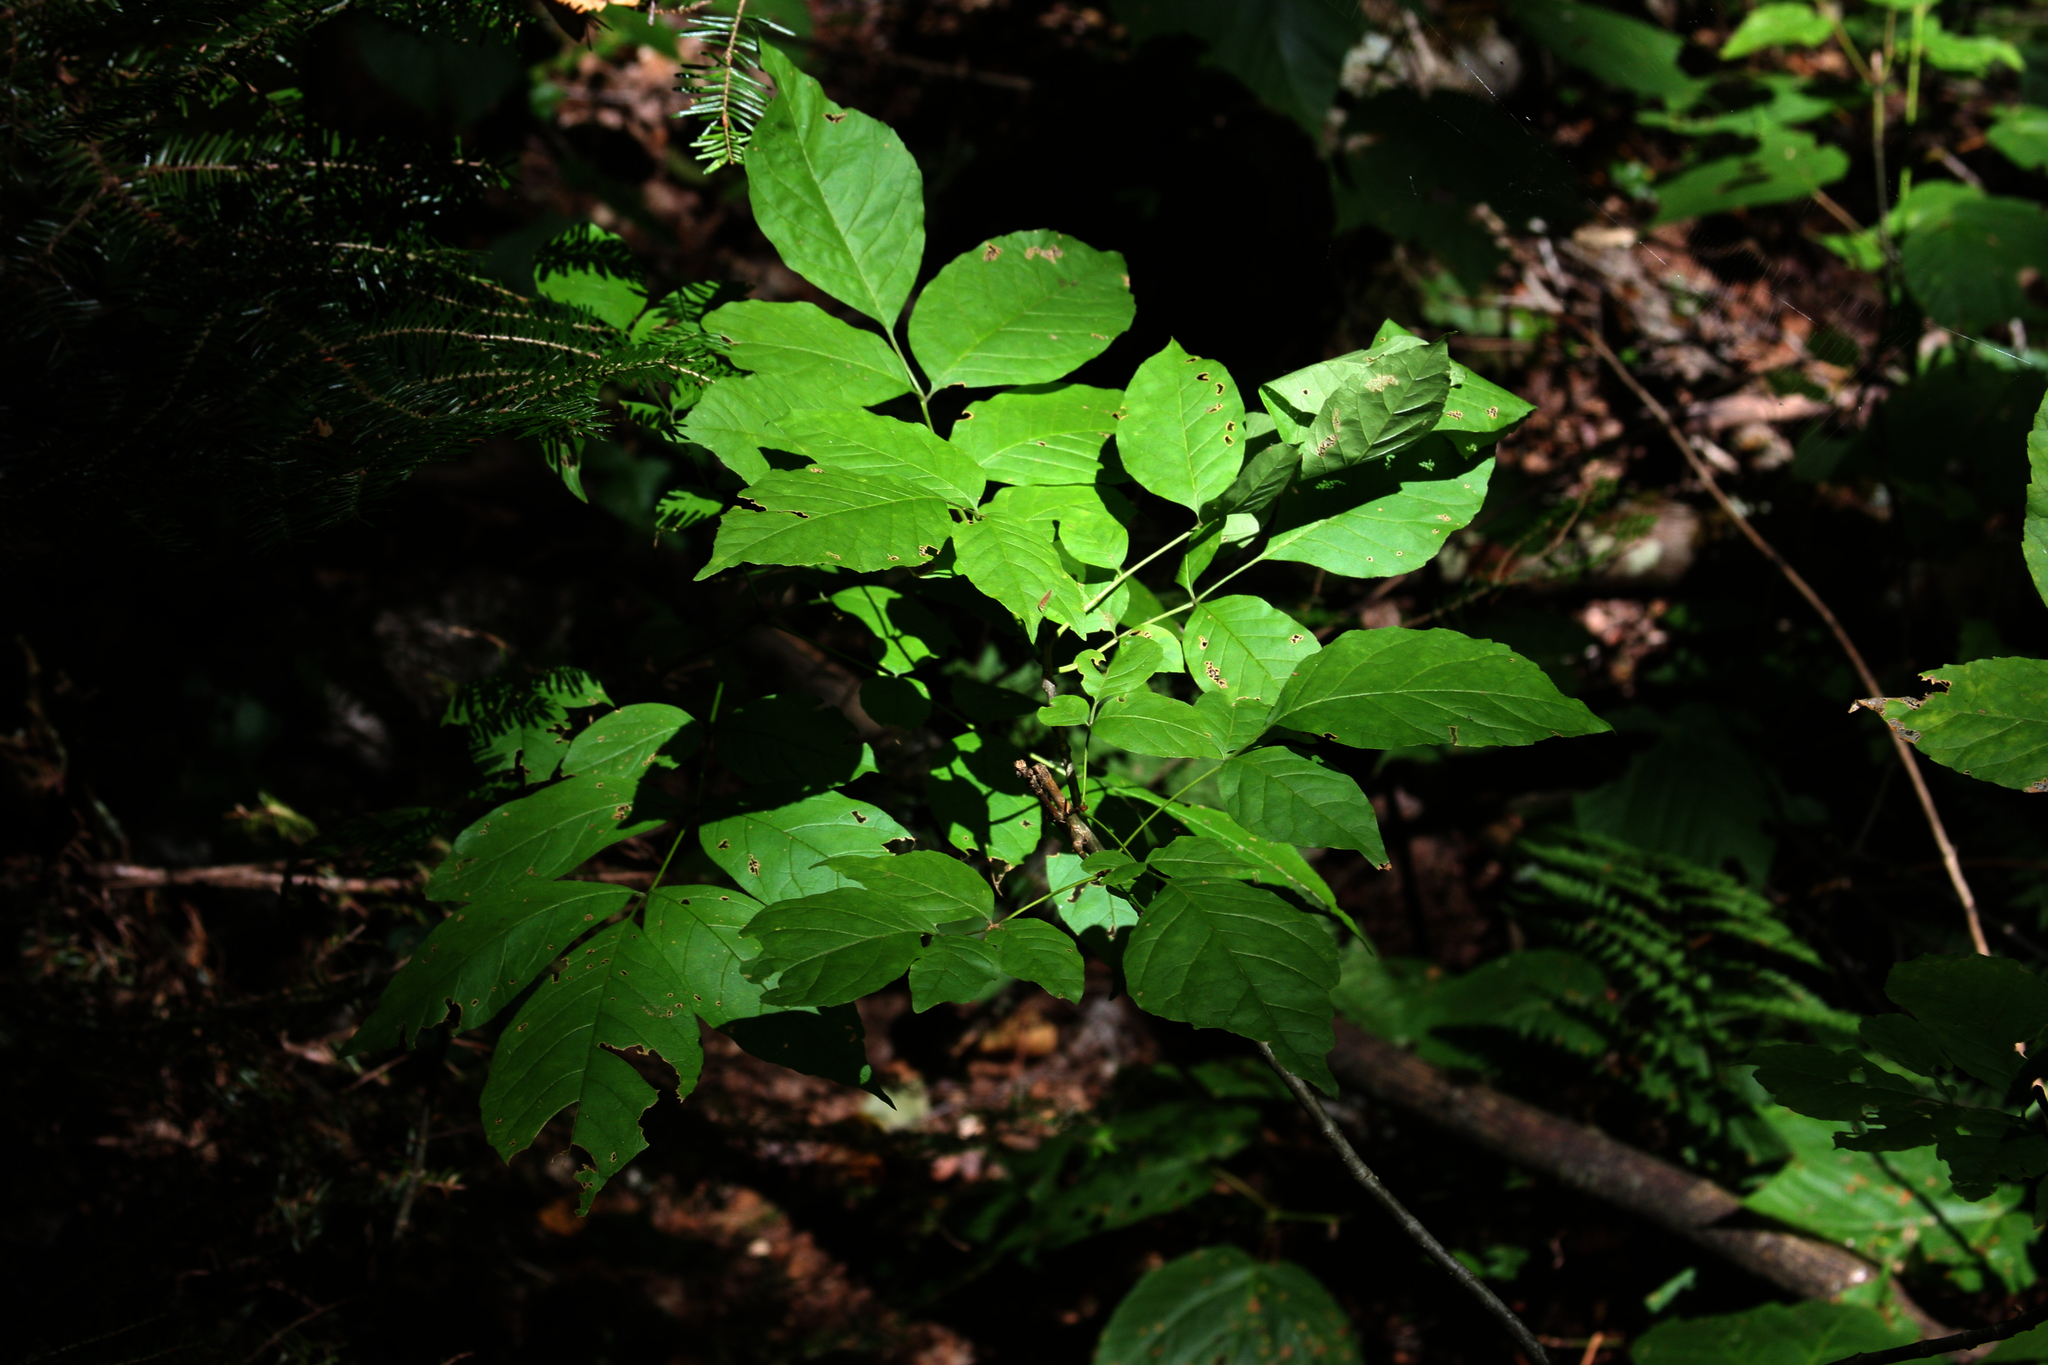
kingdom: Plantae
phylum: Tracheophyta
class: Magnoliopsida
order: Lamiales
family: Oleaceae
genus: Fraxinus
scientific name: Fraxinus americana
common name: White ash
